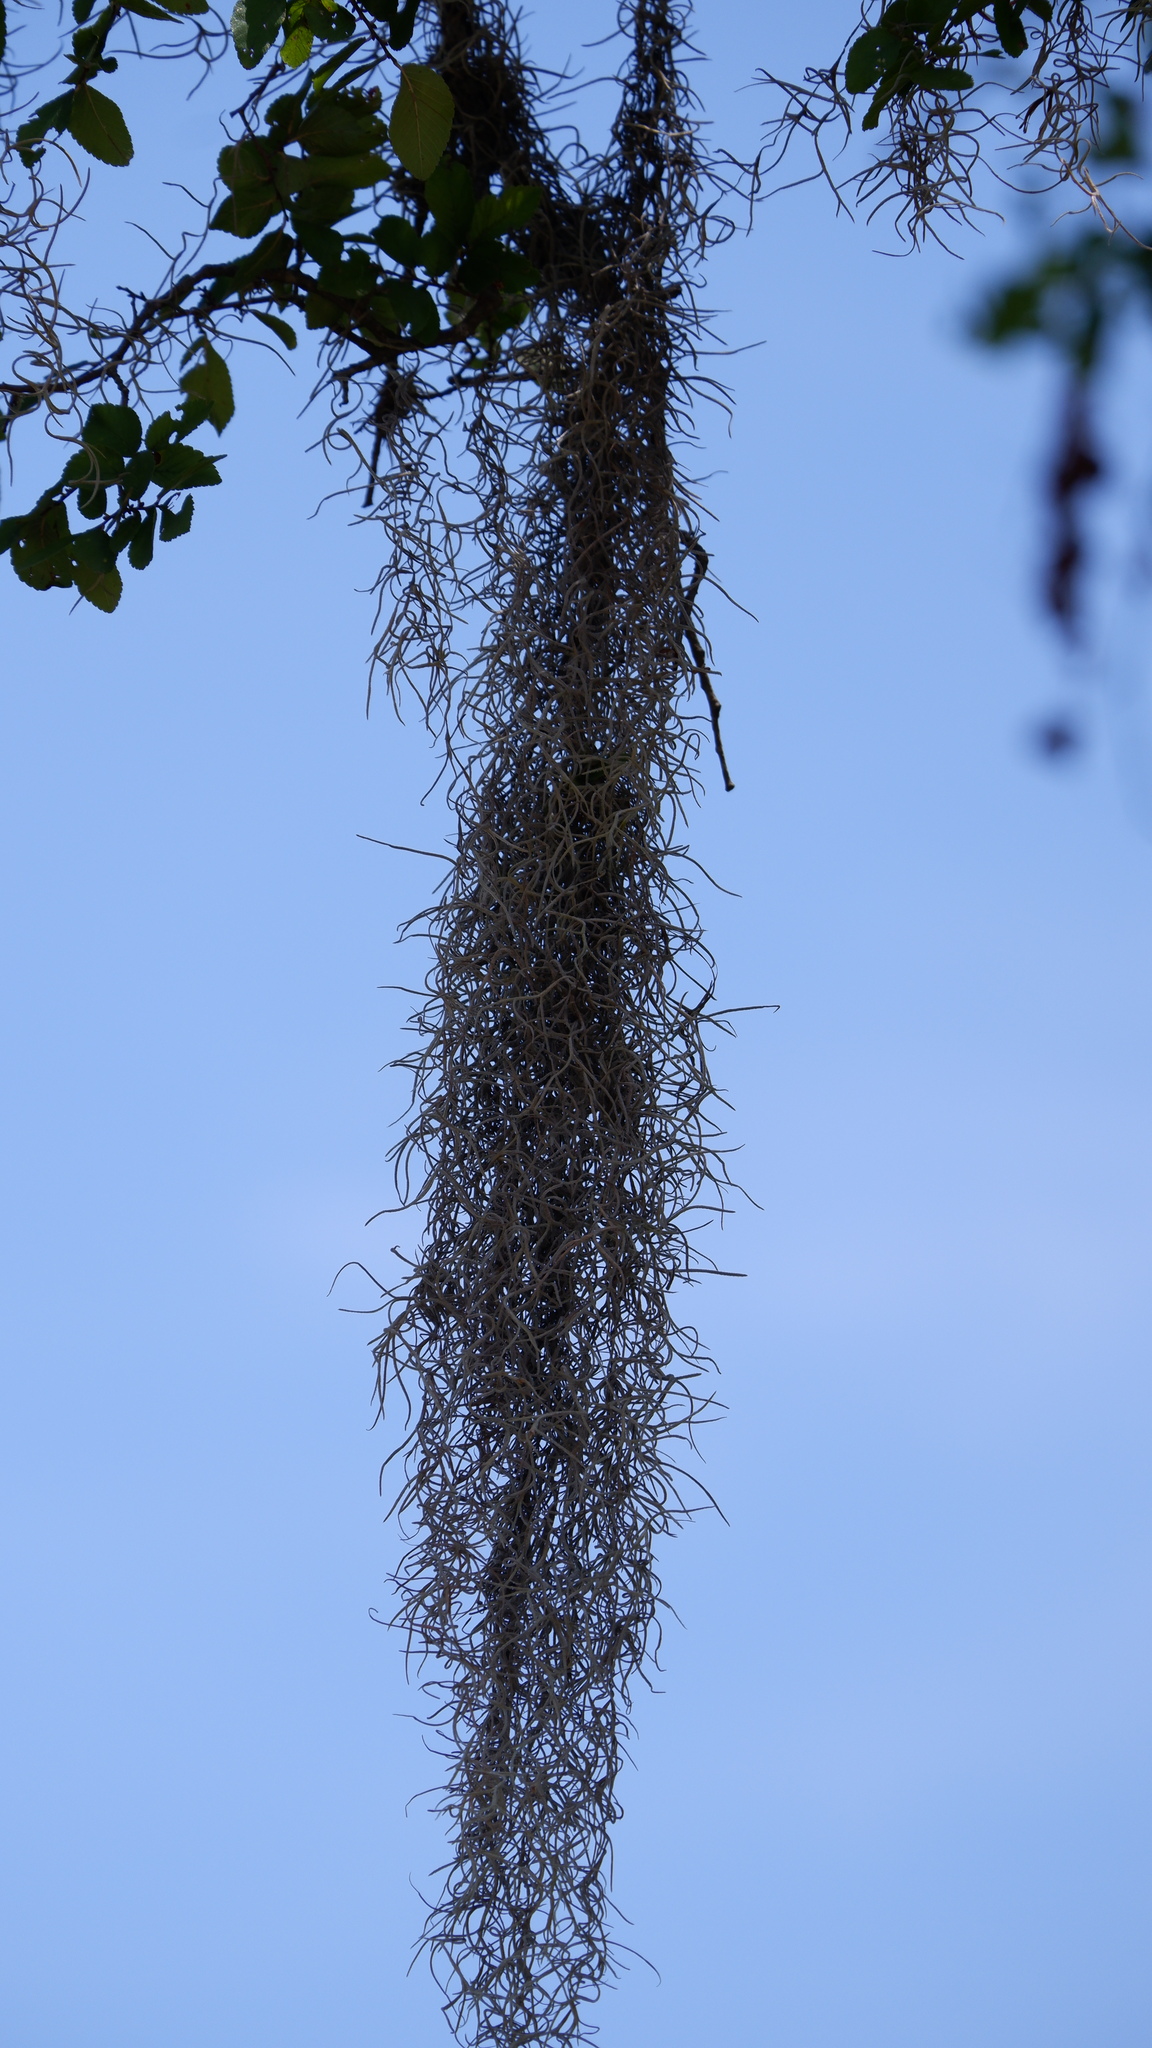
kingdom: Plantae
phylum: Tracheophyta
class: Liliopsida
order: Poales
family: Bromeliaceae
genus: Tillandsia
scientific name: Tillandsia usneoides
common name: Spanish moss
